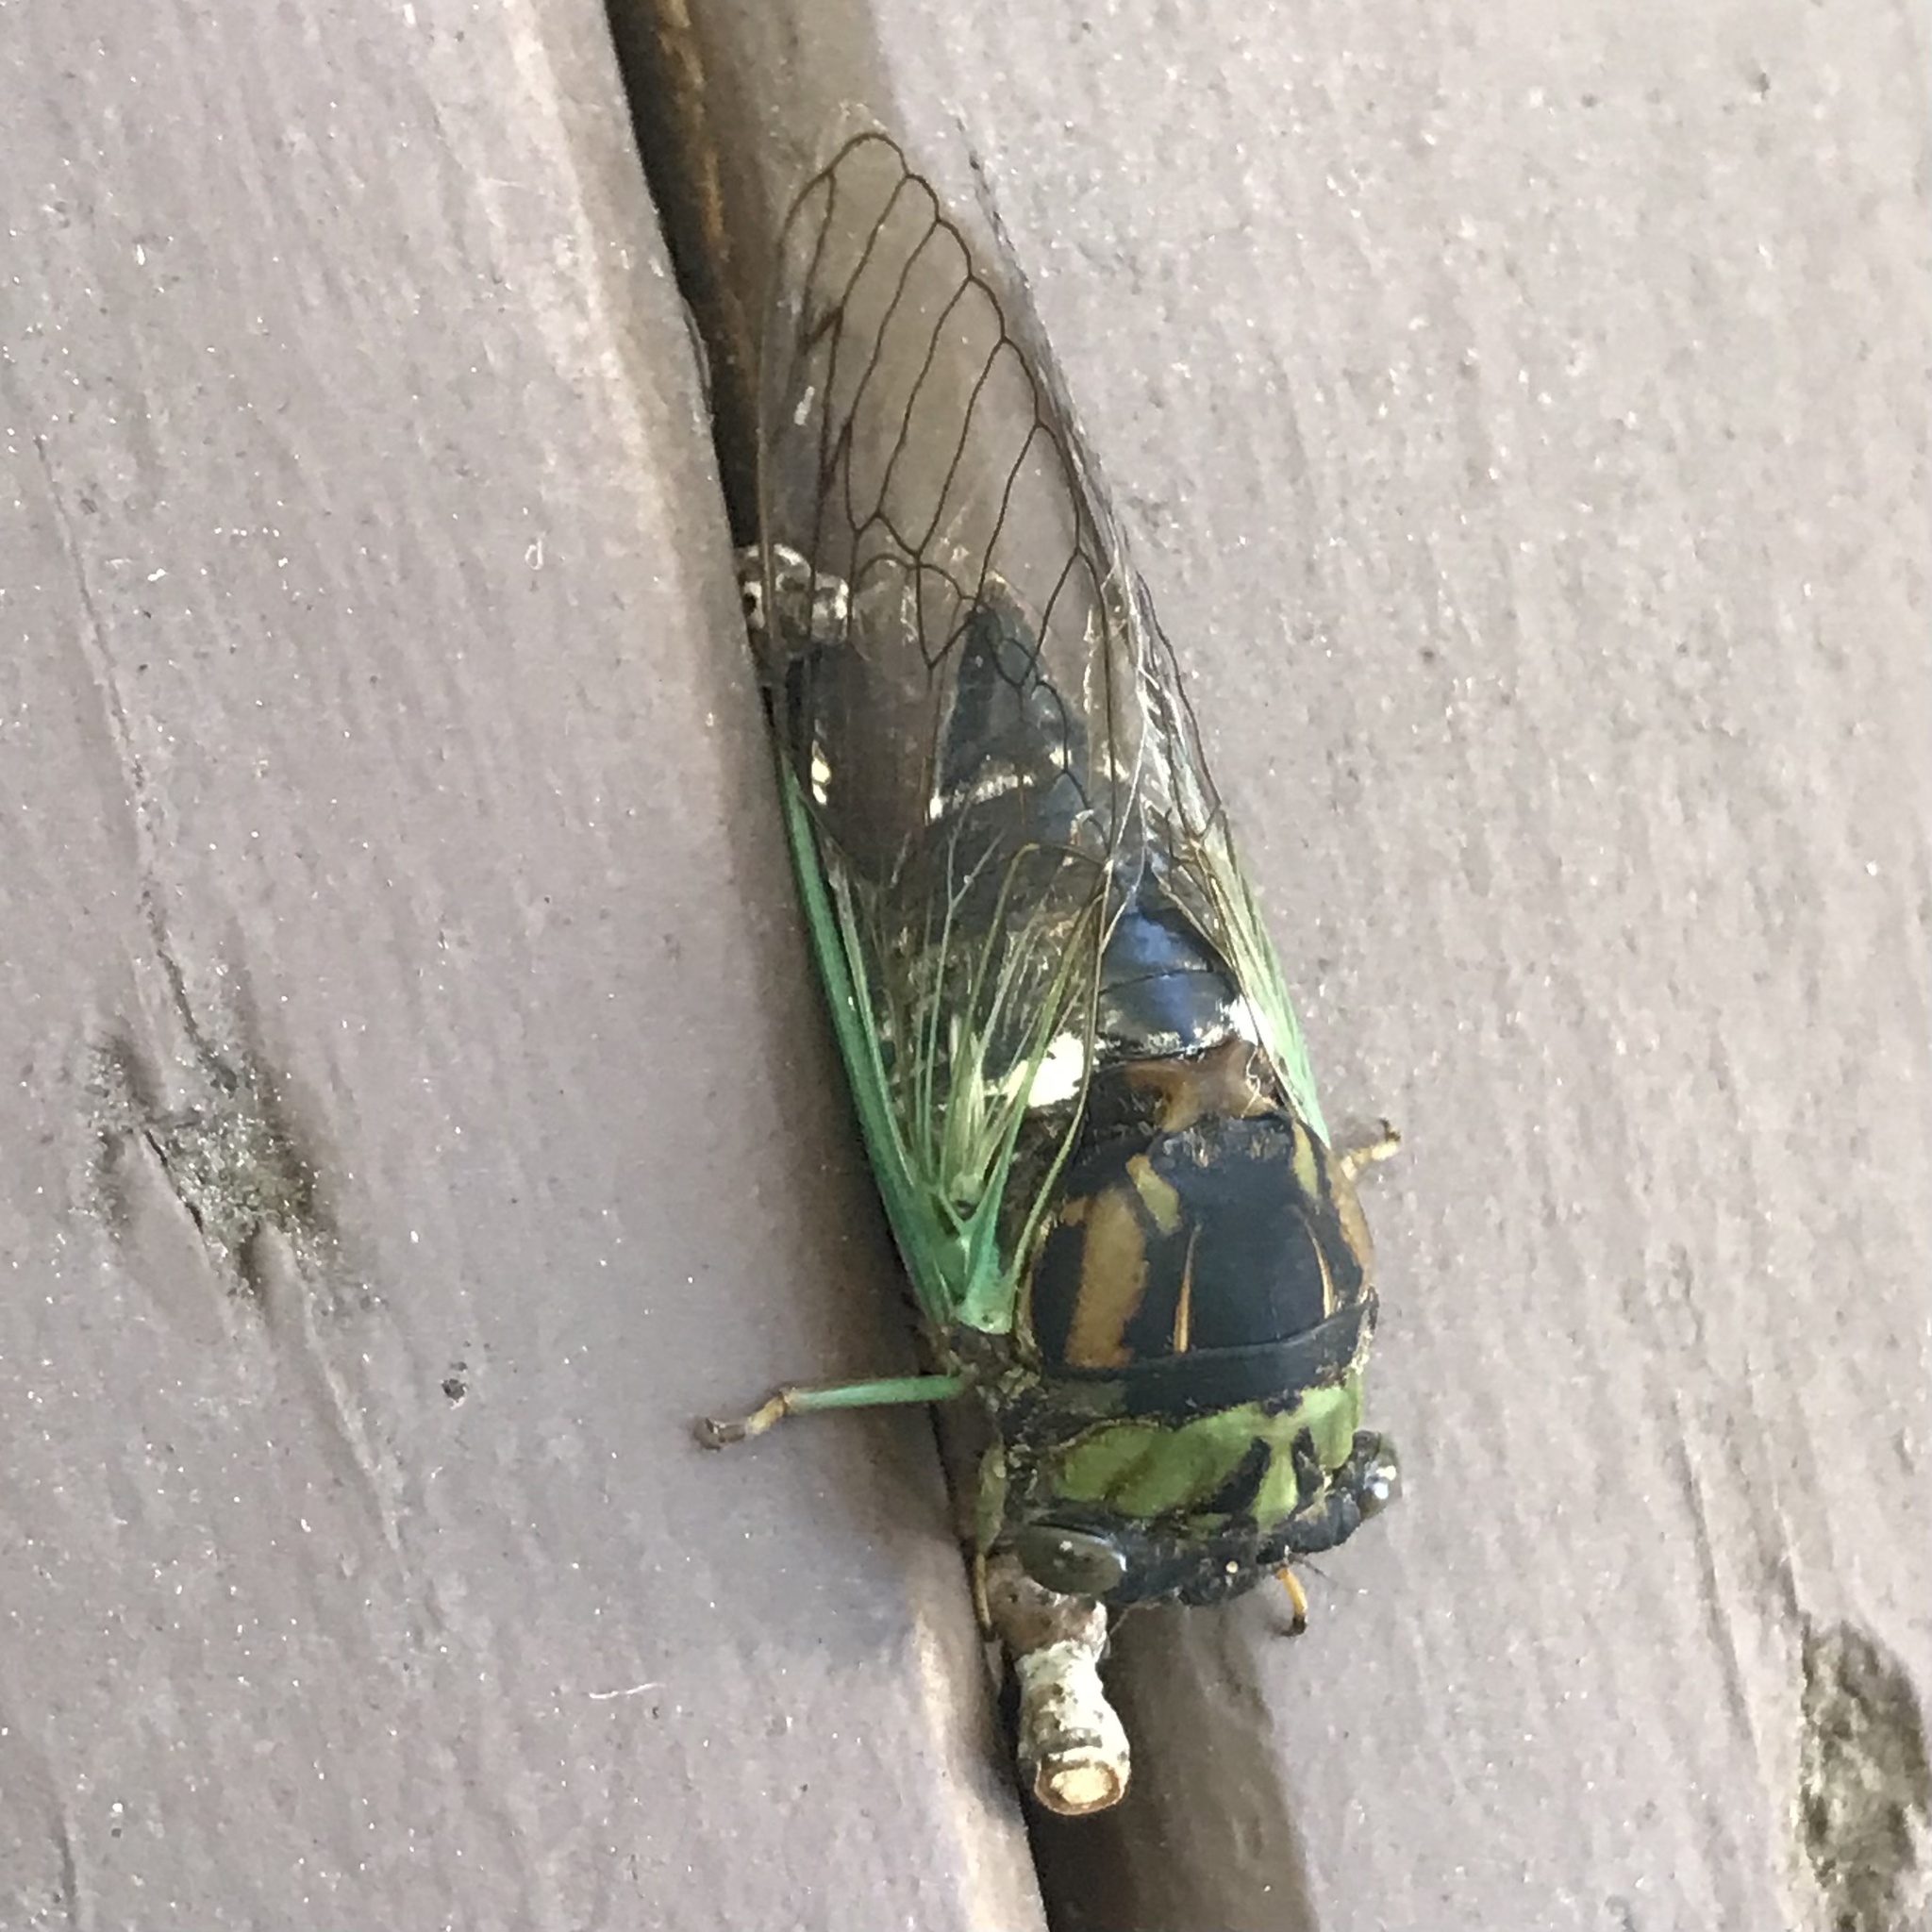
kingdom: Animalia
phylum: Arthropoda
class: Insecta
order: Hemiptera
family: Cicadidae
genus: Neotibicen
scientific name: Neotibicen tibicen
